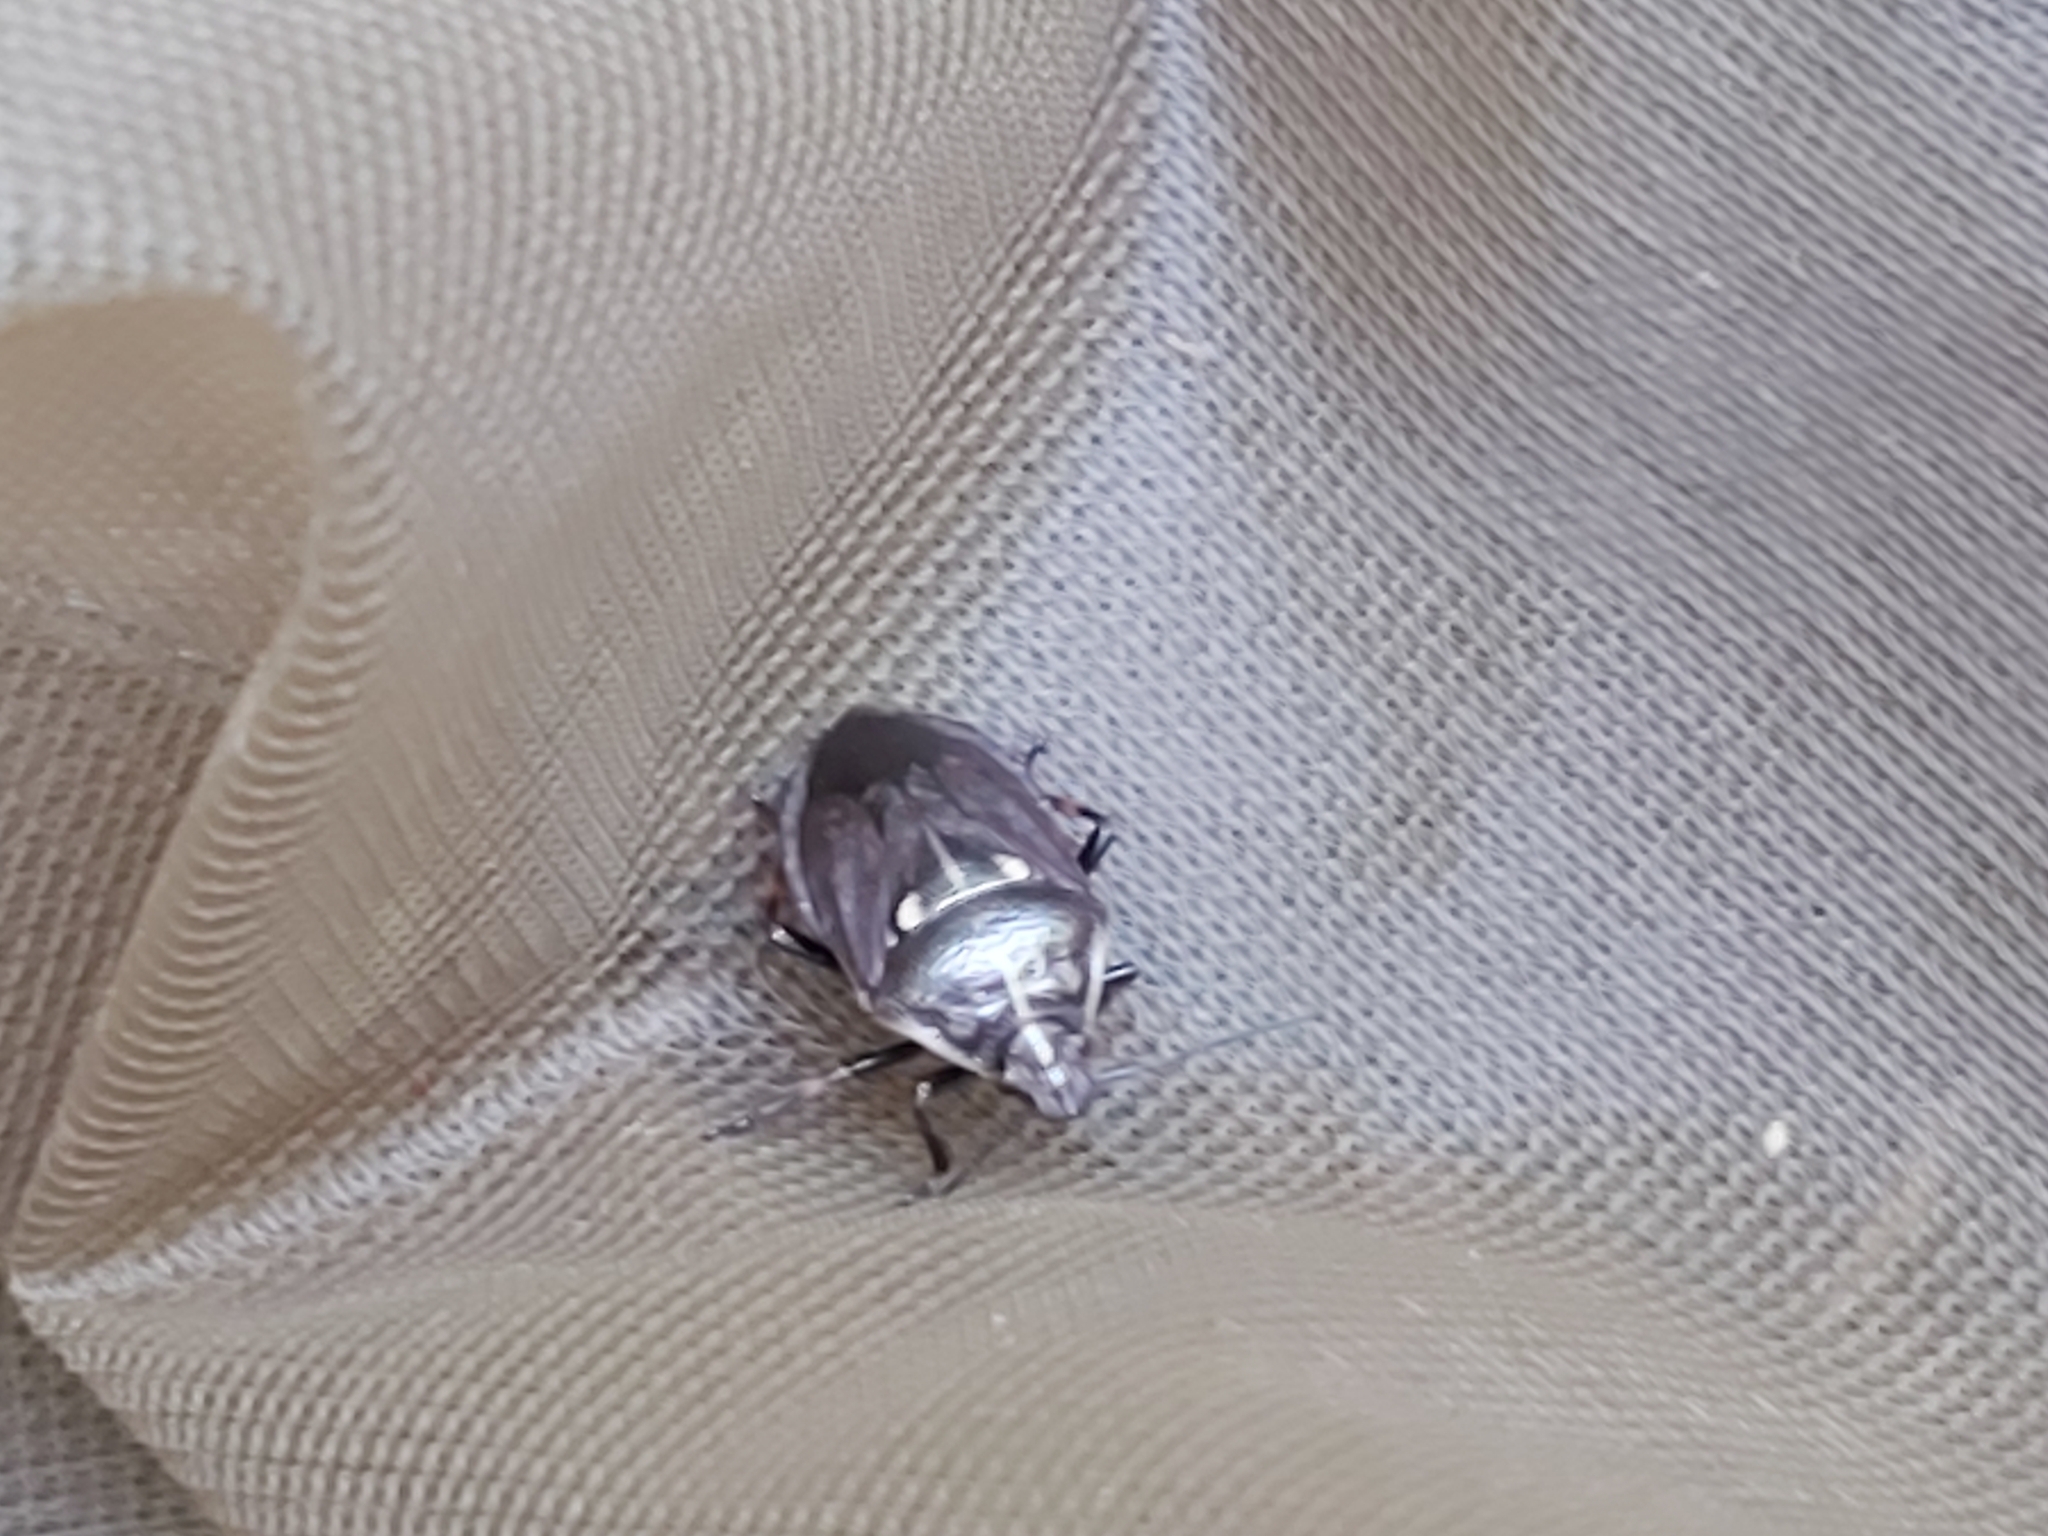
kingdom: Animalia
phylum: Arthropoda
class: Insecta
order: Hemiptera
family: Pentatomidae
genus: Jalla
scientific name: Jalla dumosa
